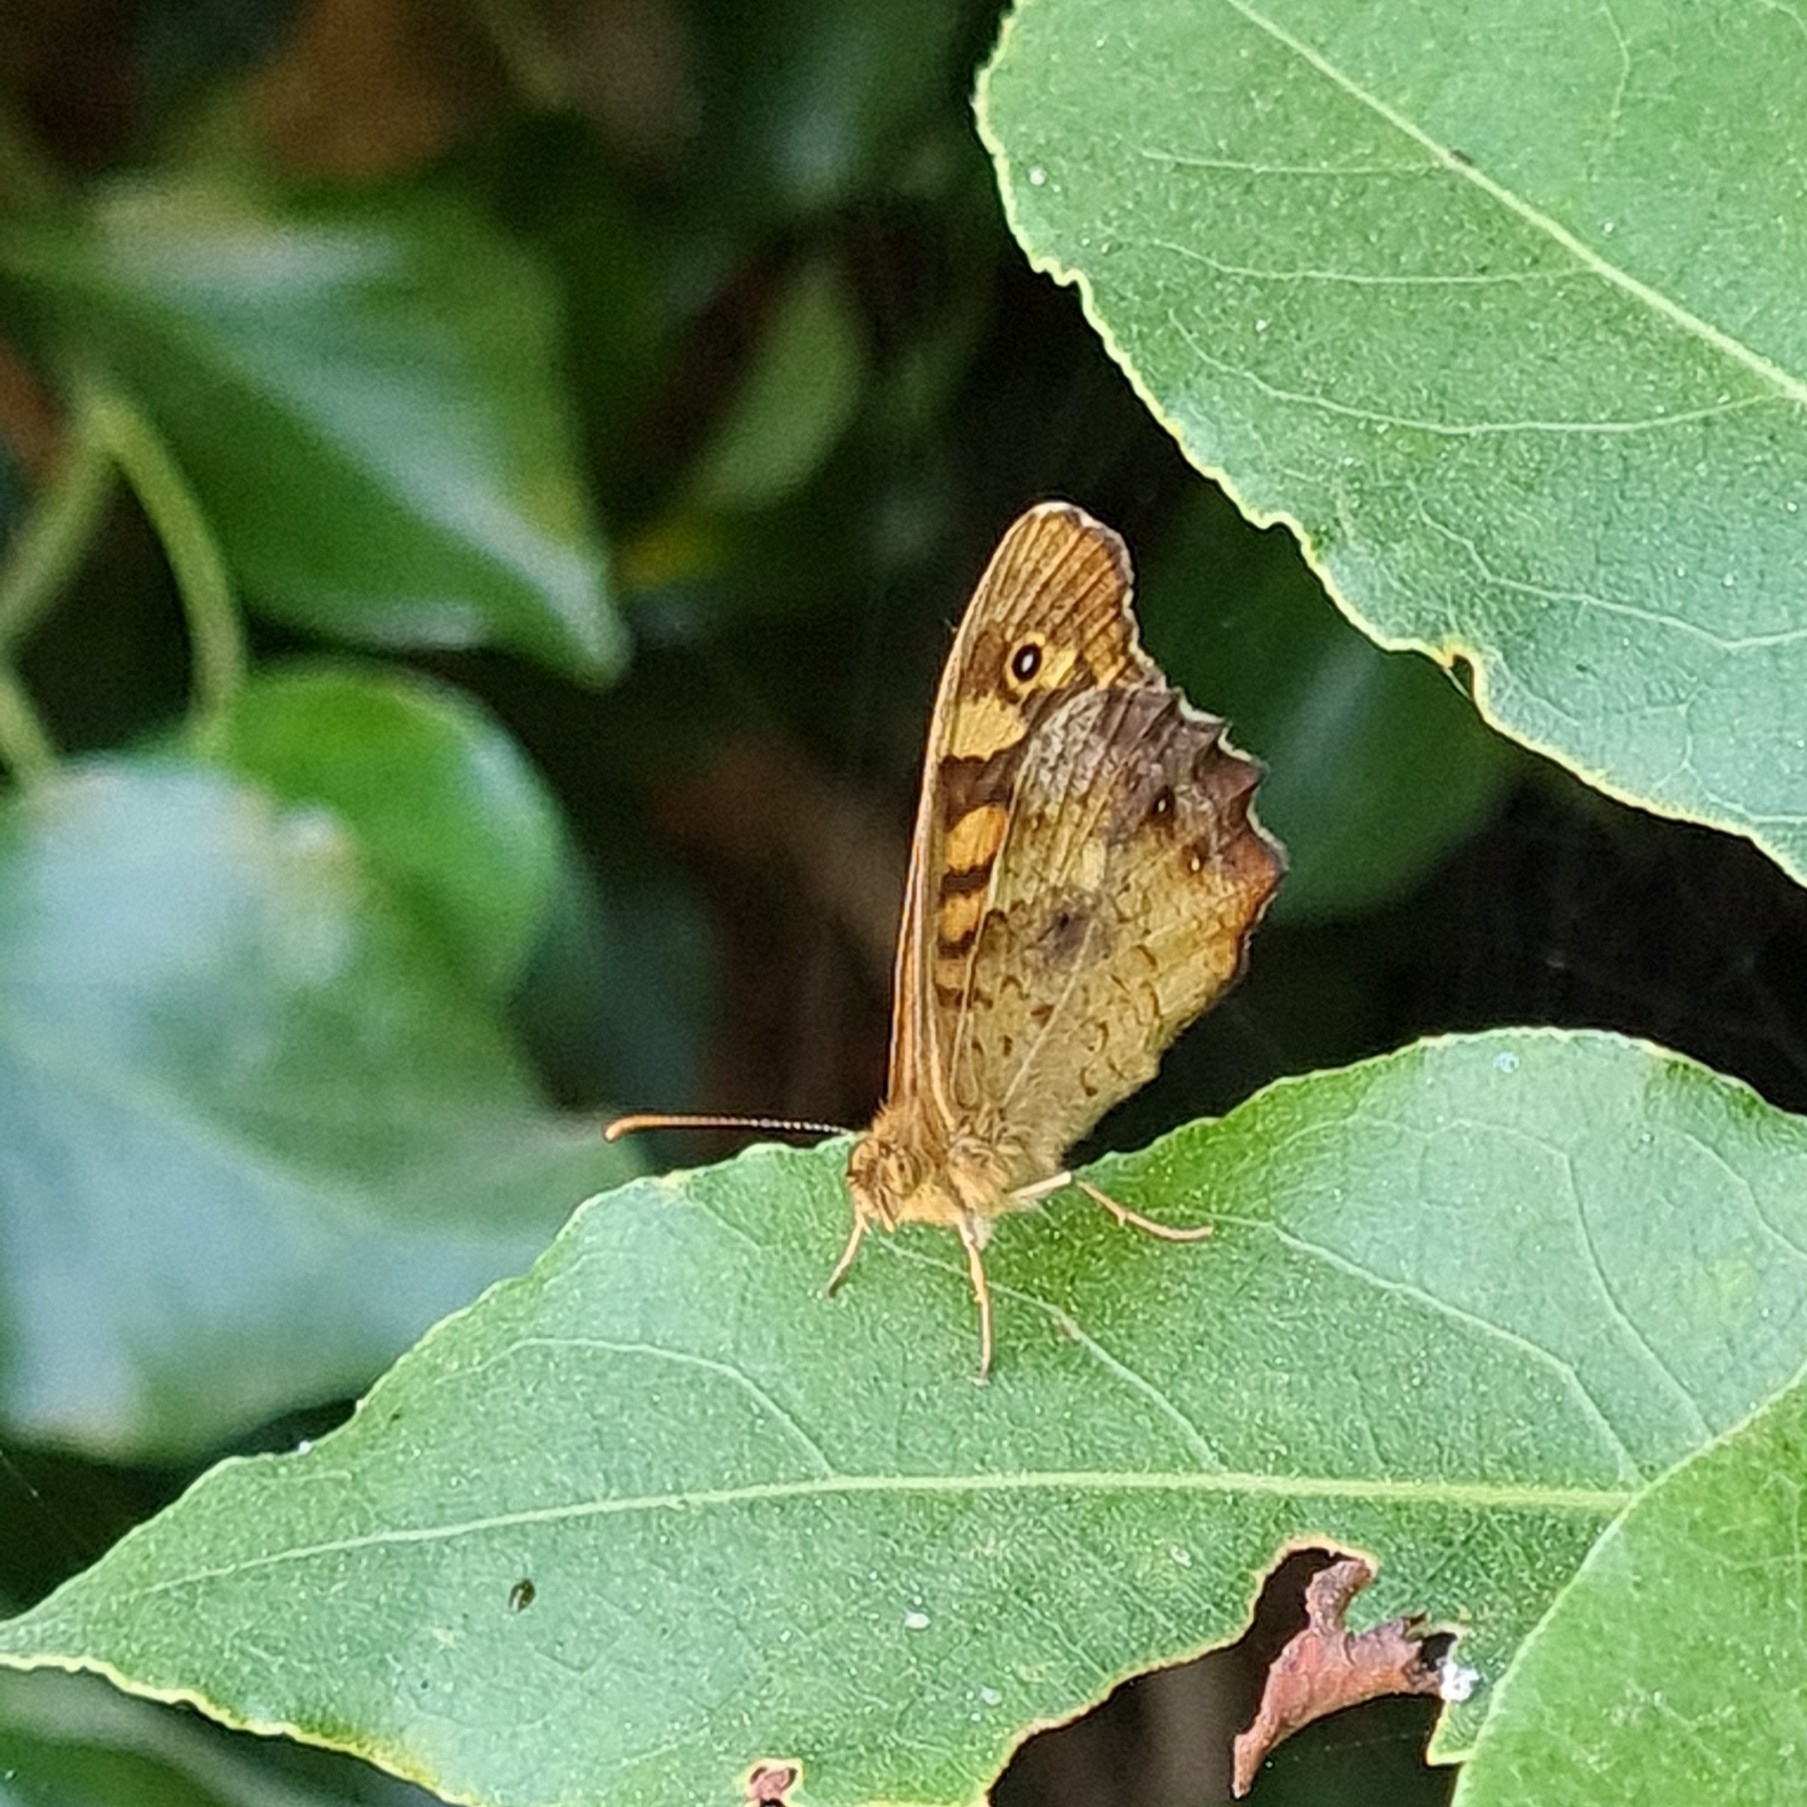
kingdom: Animalia
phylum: Arthropoda
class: Insecta
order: Lepidoptera
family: Nymphalidae
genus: Pararge
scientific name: Pararge aegeria
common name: Speckled wood
